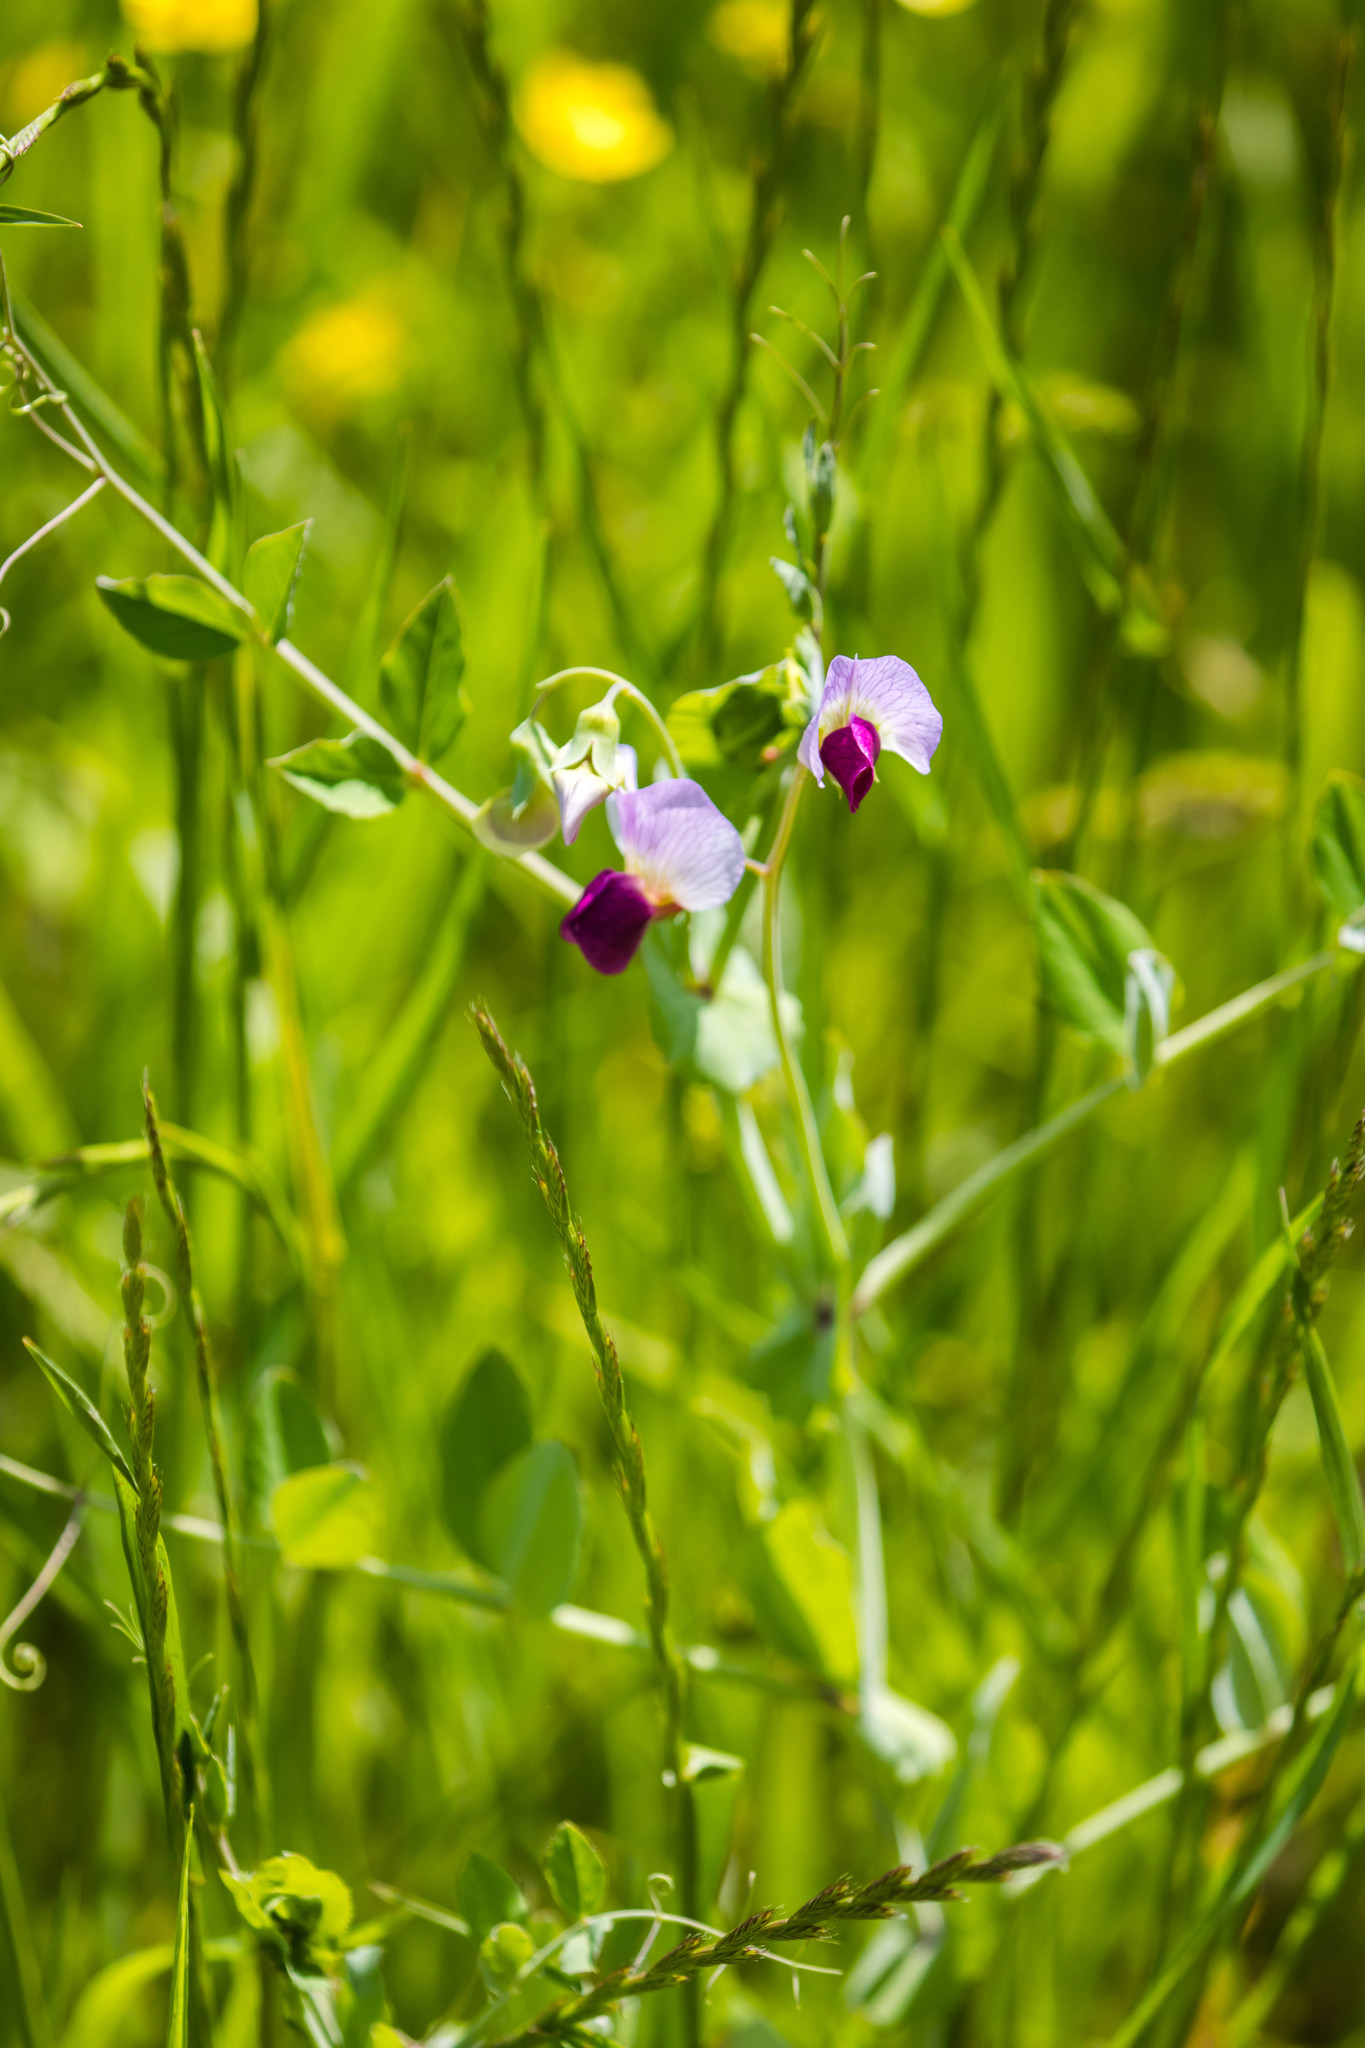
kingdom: Plantae
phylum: Tracheophyta
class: Magnoliopsida
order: Fabales
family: Fabaceae
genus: Lathyrus
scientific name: Lathyrus oleraceus
